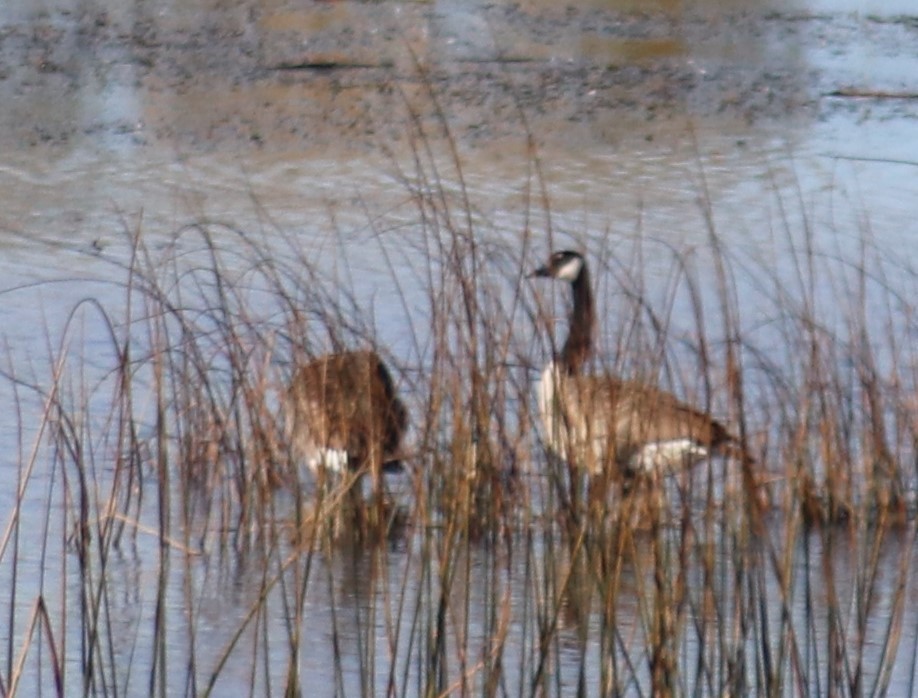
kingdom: Animalia
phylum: Chordata
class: Aves
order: Anseriformes
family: Anatidae
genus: Branta
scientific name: Branta canadensis
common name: Canada goose
